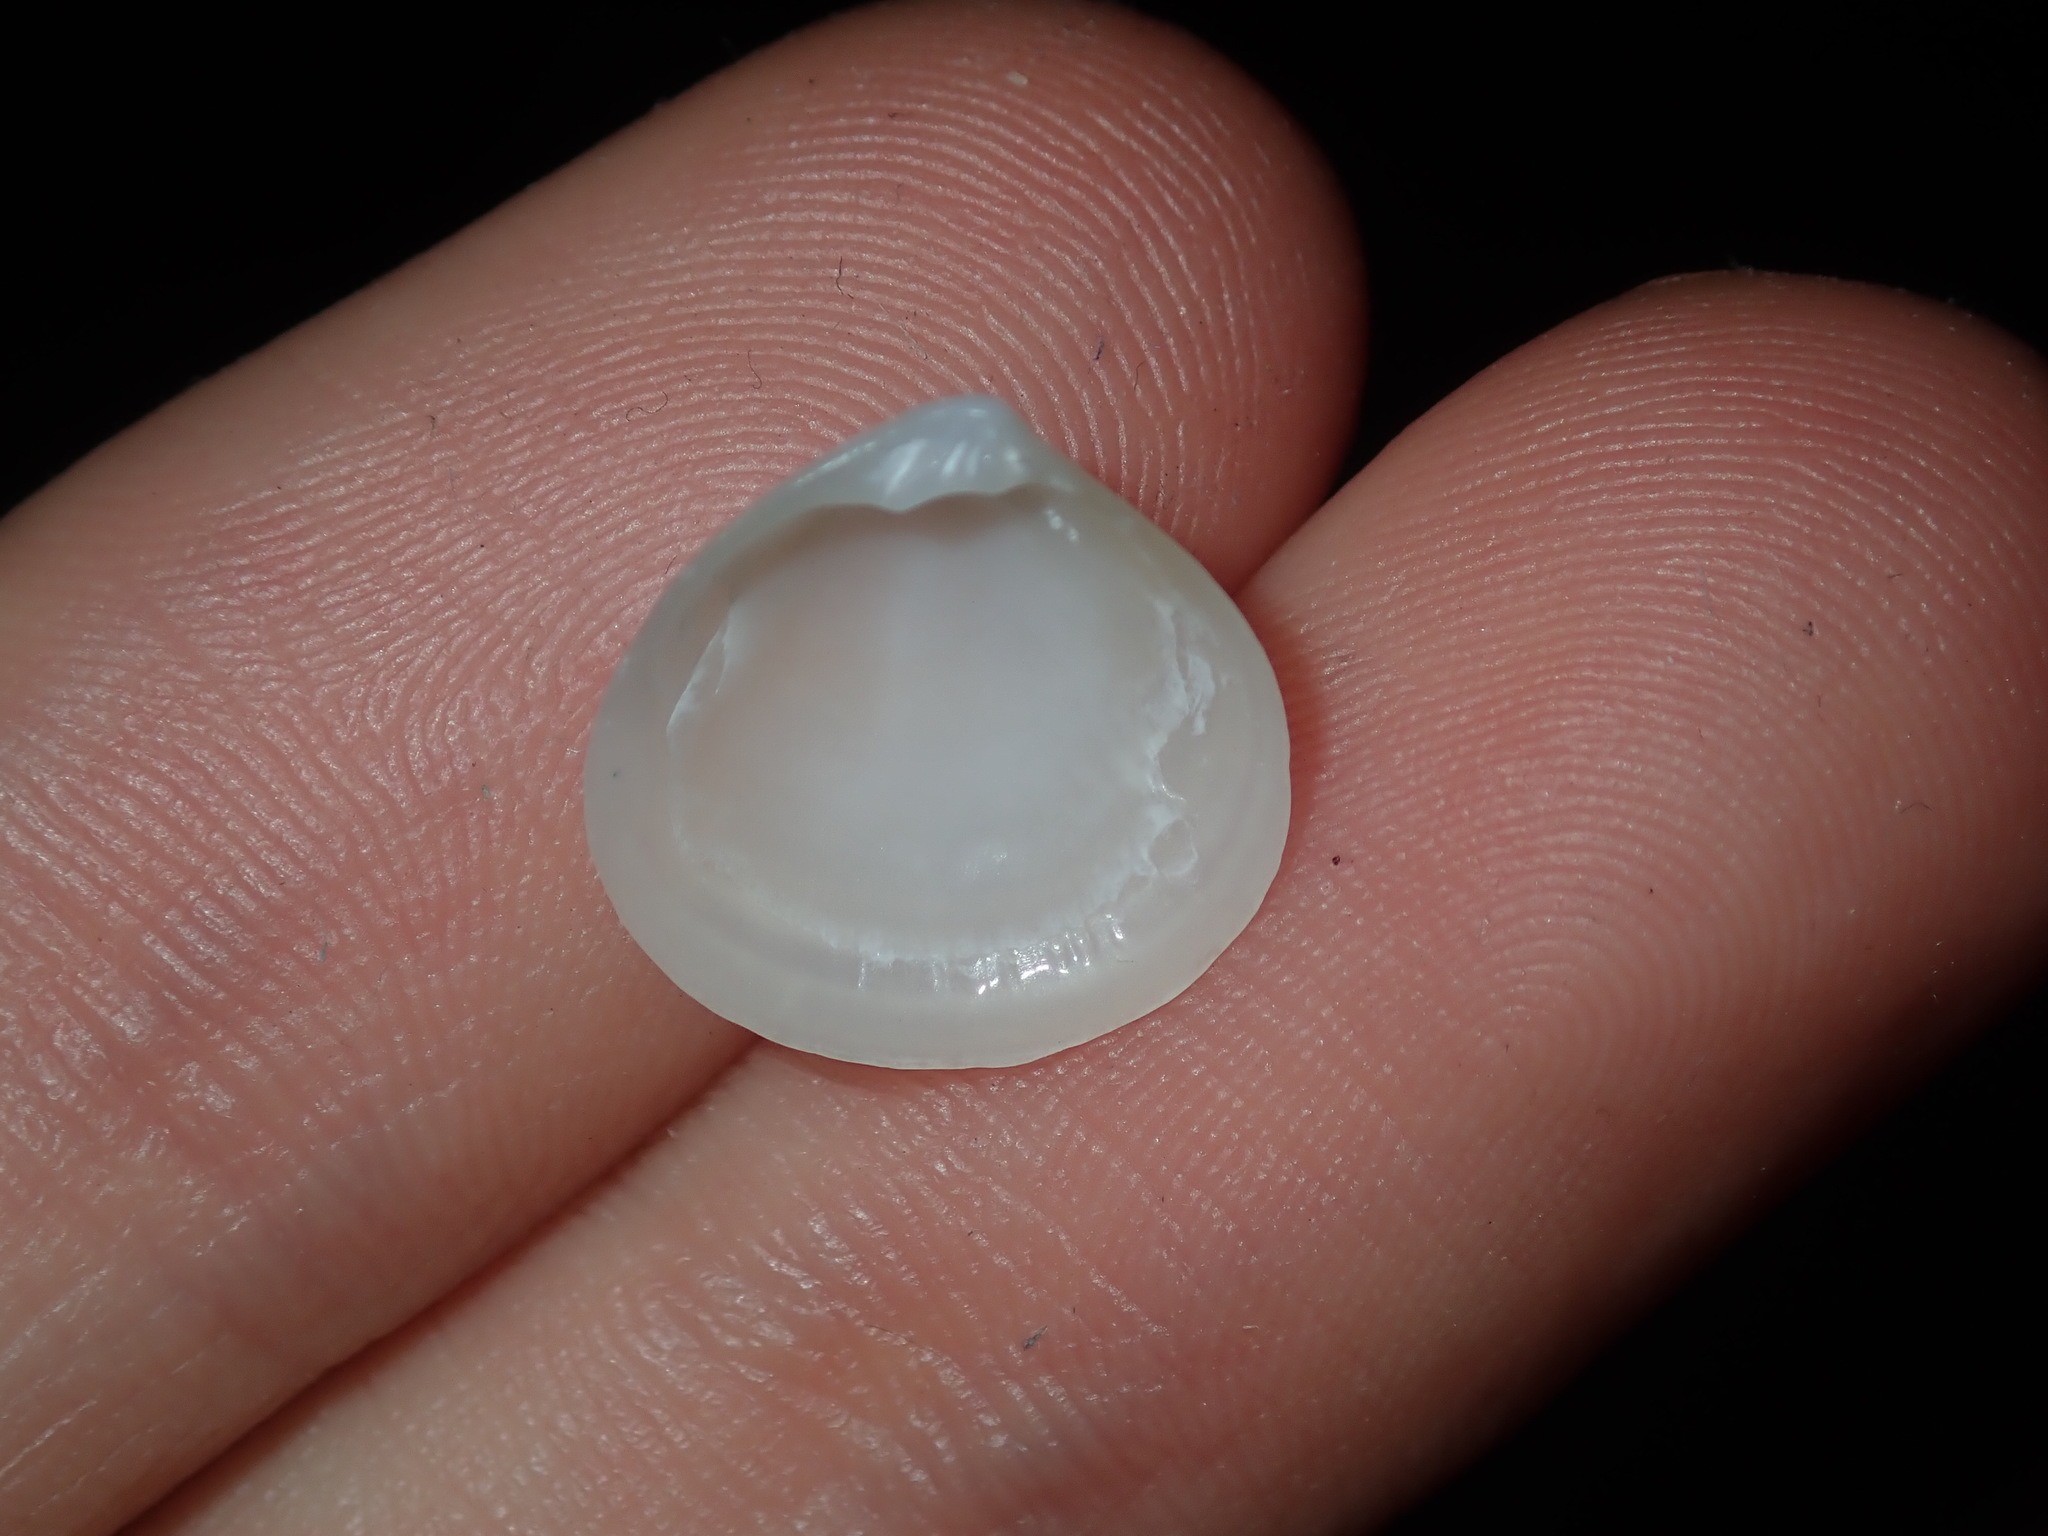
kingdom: Animalia
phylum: Mollusca
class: Bivalvia
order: Venerida
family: Ungulinidae
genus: Microstagon
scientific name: Microstagon jacksonensis
